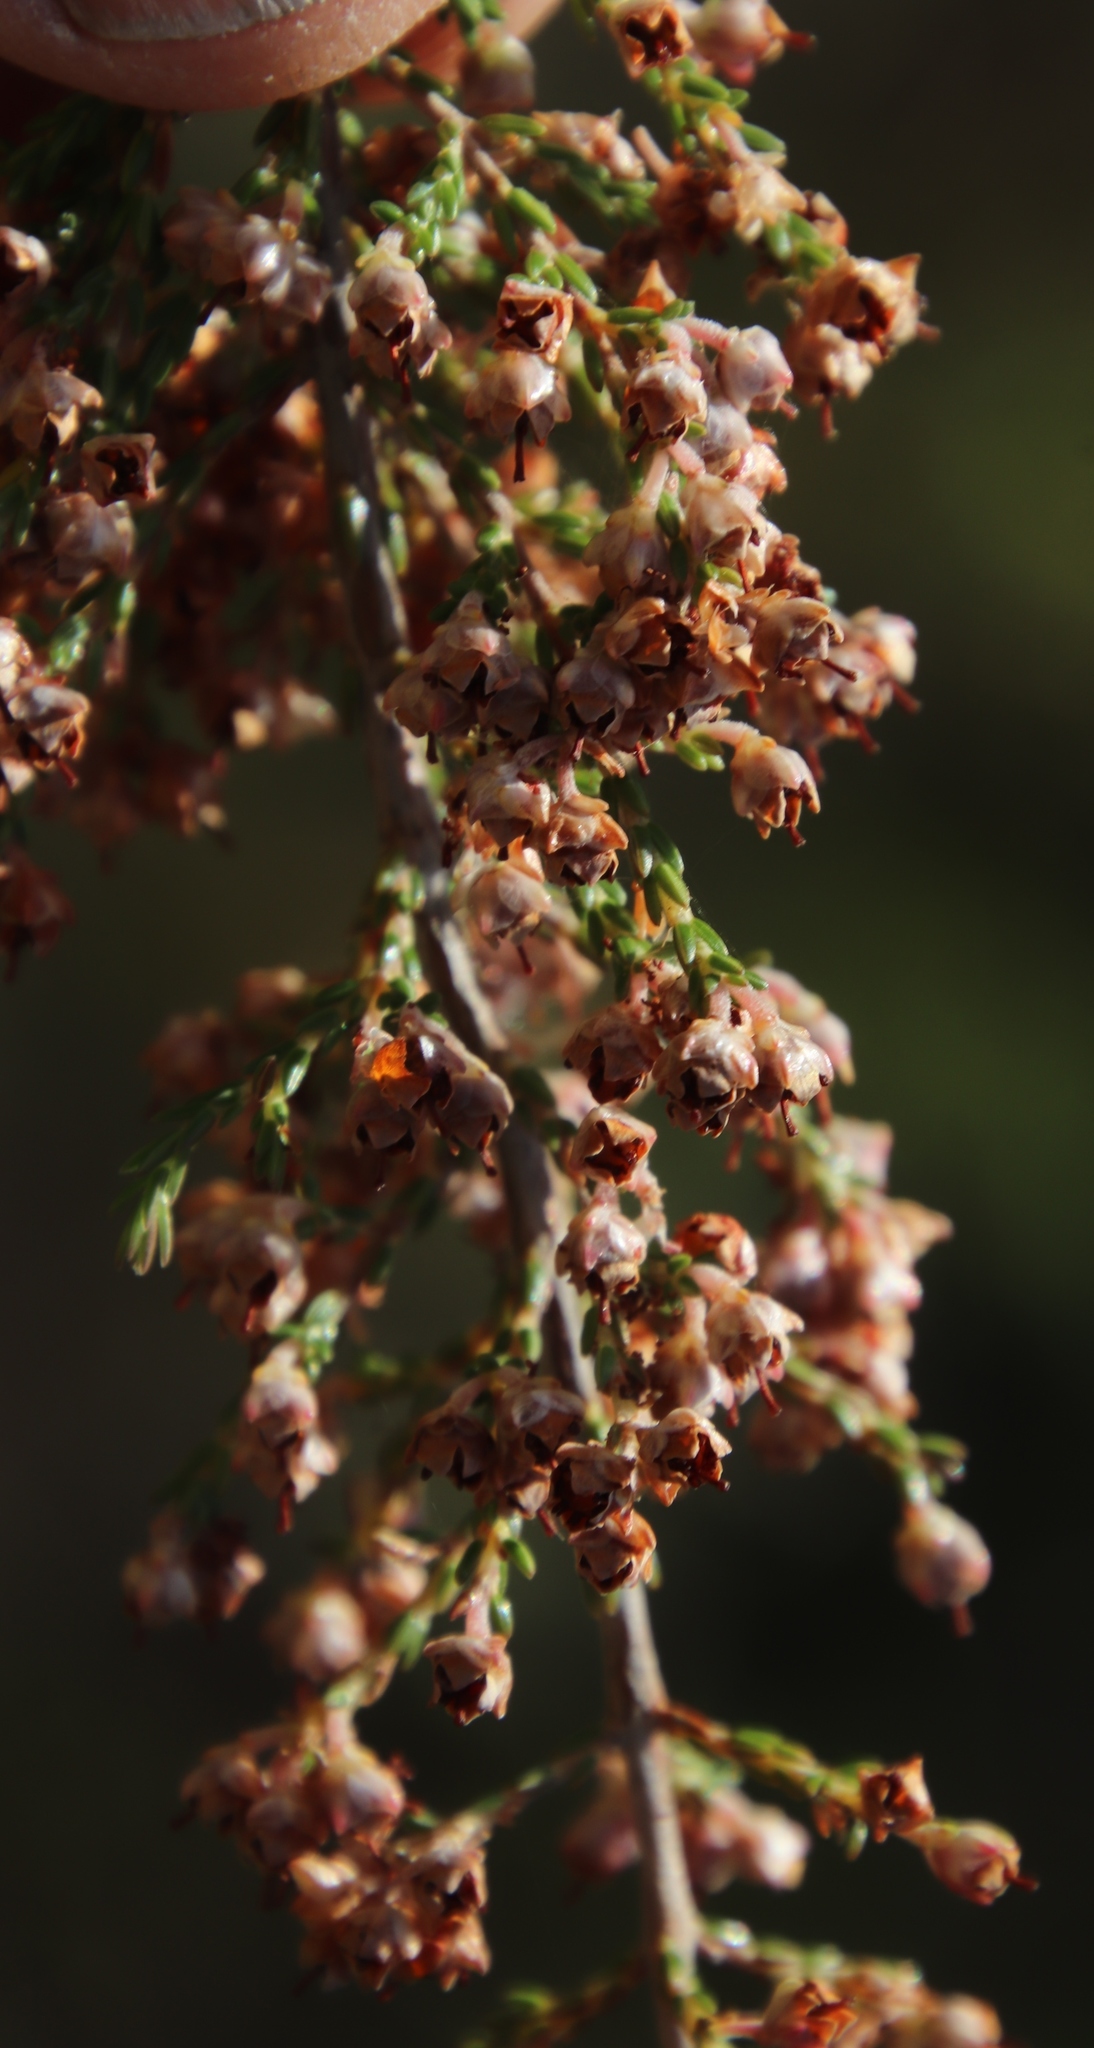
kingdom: Plantae
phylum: Tracheophyta
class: Magnoliopsida
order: Ericales
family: Ericaceae
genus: Erica
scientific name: Erica lucida
